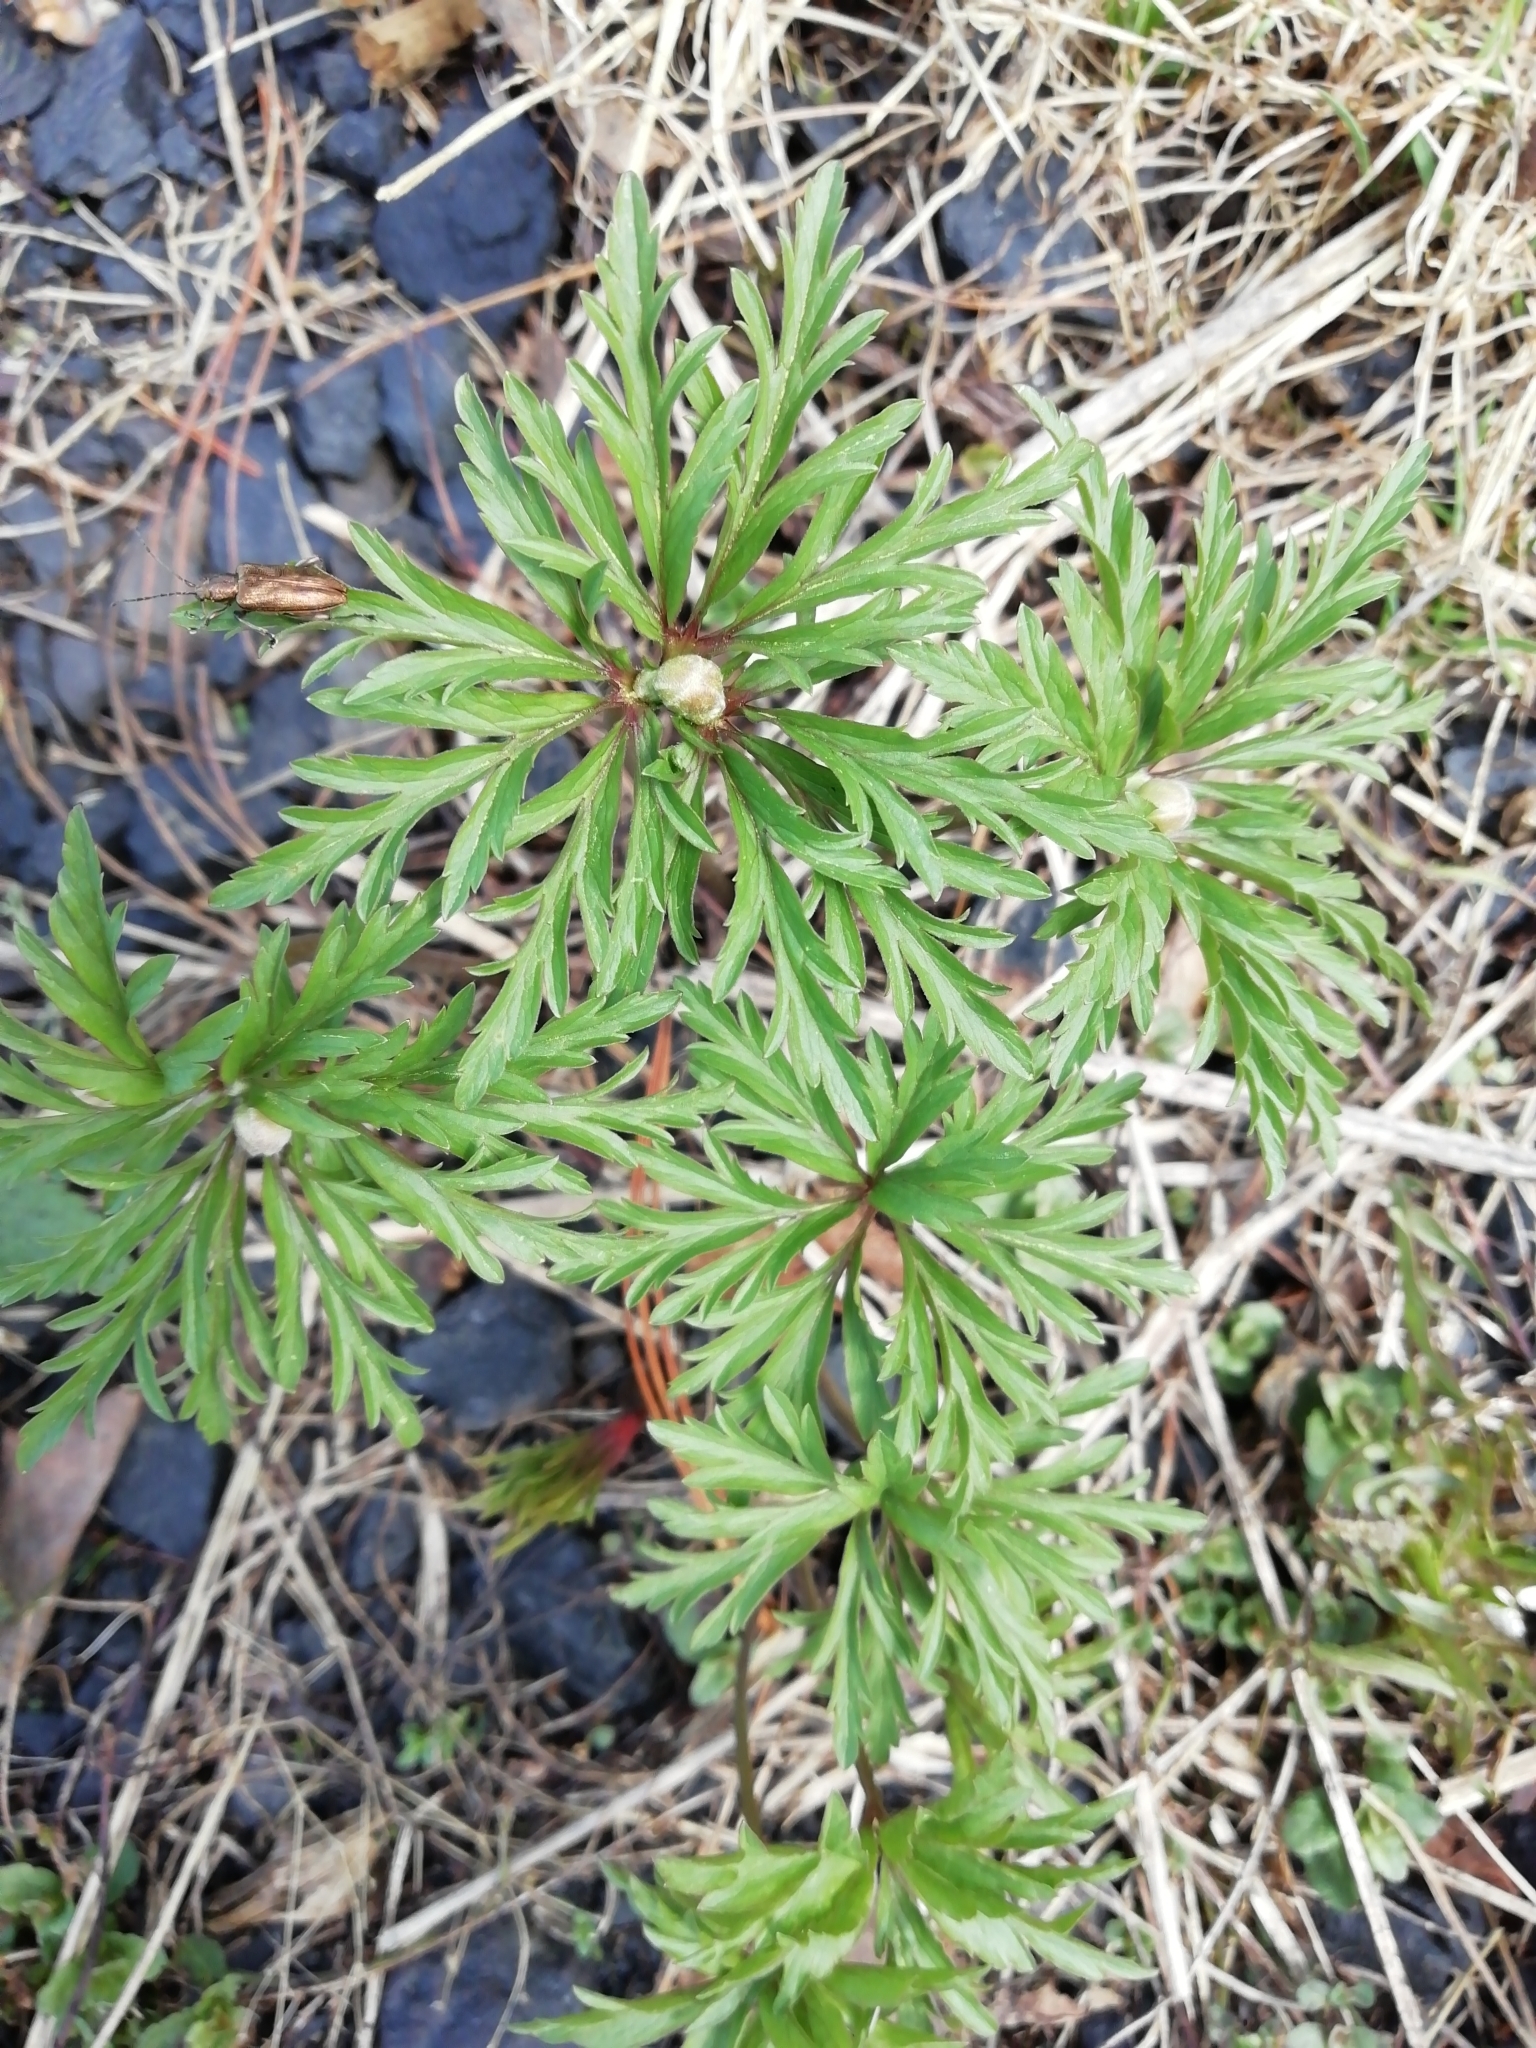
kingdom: Plantae
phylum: Tracheophyta
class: Magnoliopsida
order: Ranunculales
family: Ranunculaceae
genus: Anemone
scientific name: Anemone caerulea
